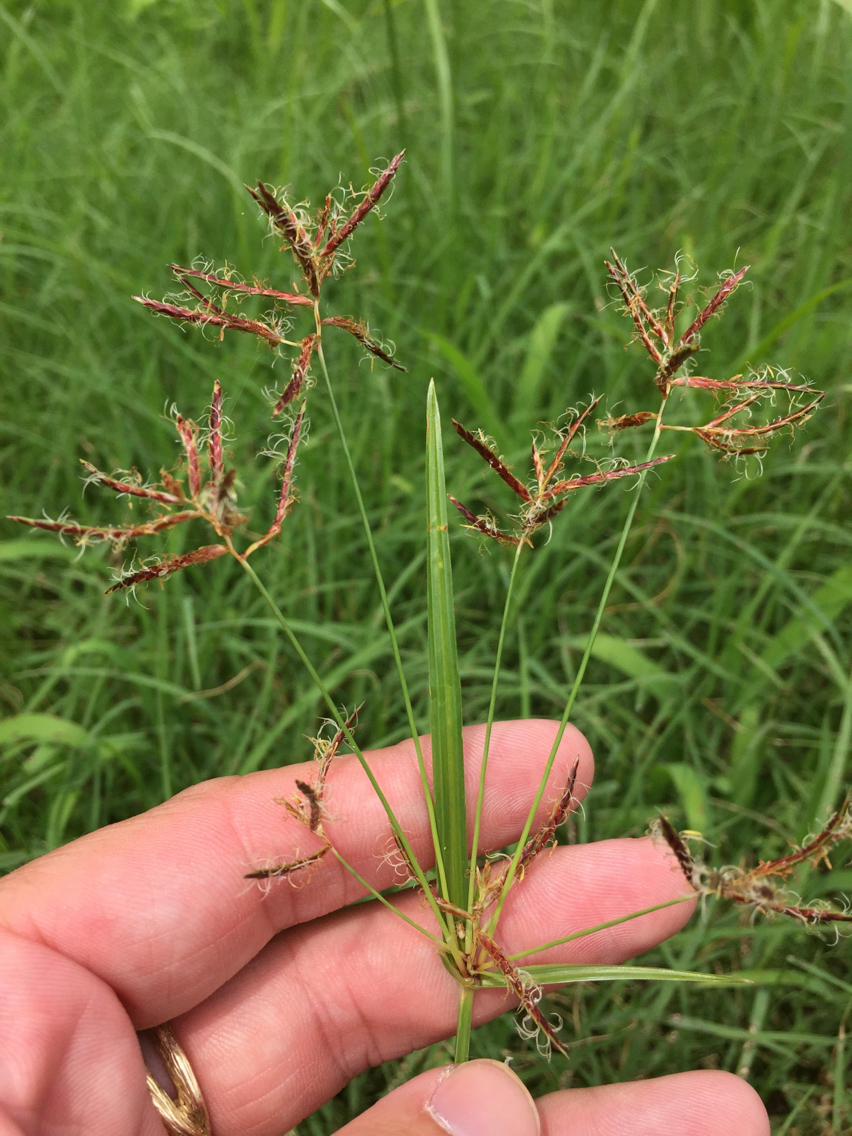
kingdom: Plantae
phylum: Tracheophyta
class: Liliopsida
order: Poales
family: Cyperaceae
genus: Cyperus
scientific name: Cyperus rotundus
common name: Nutgrass
